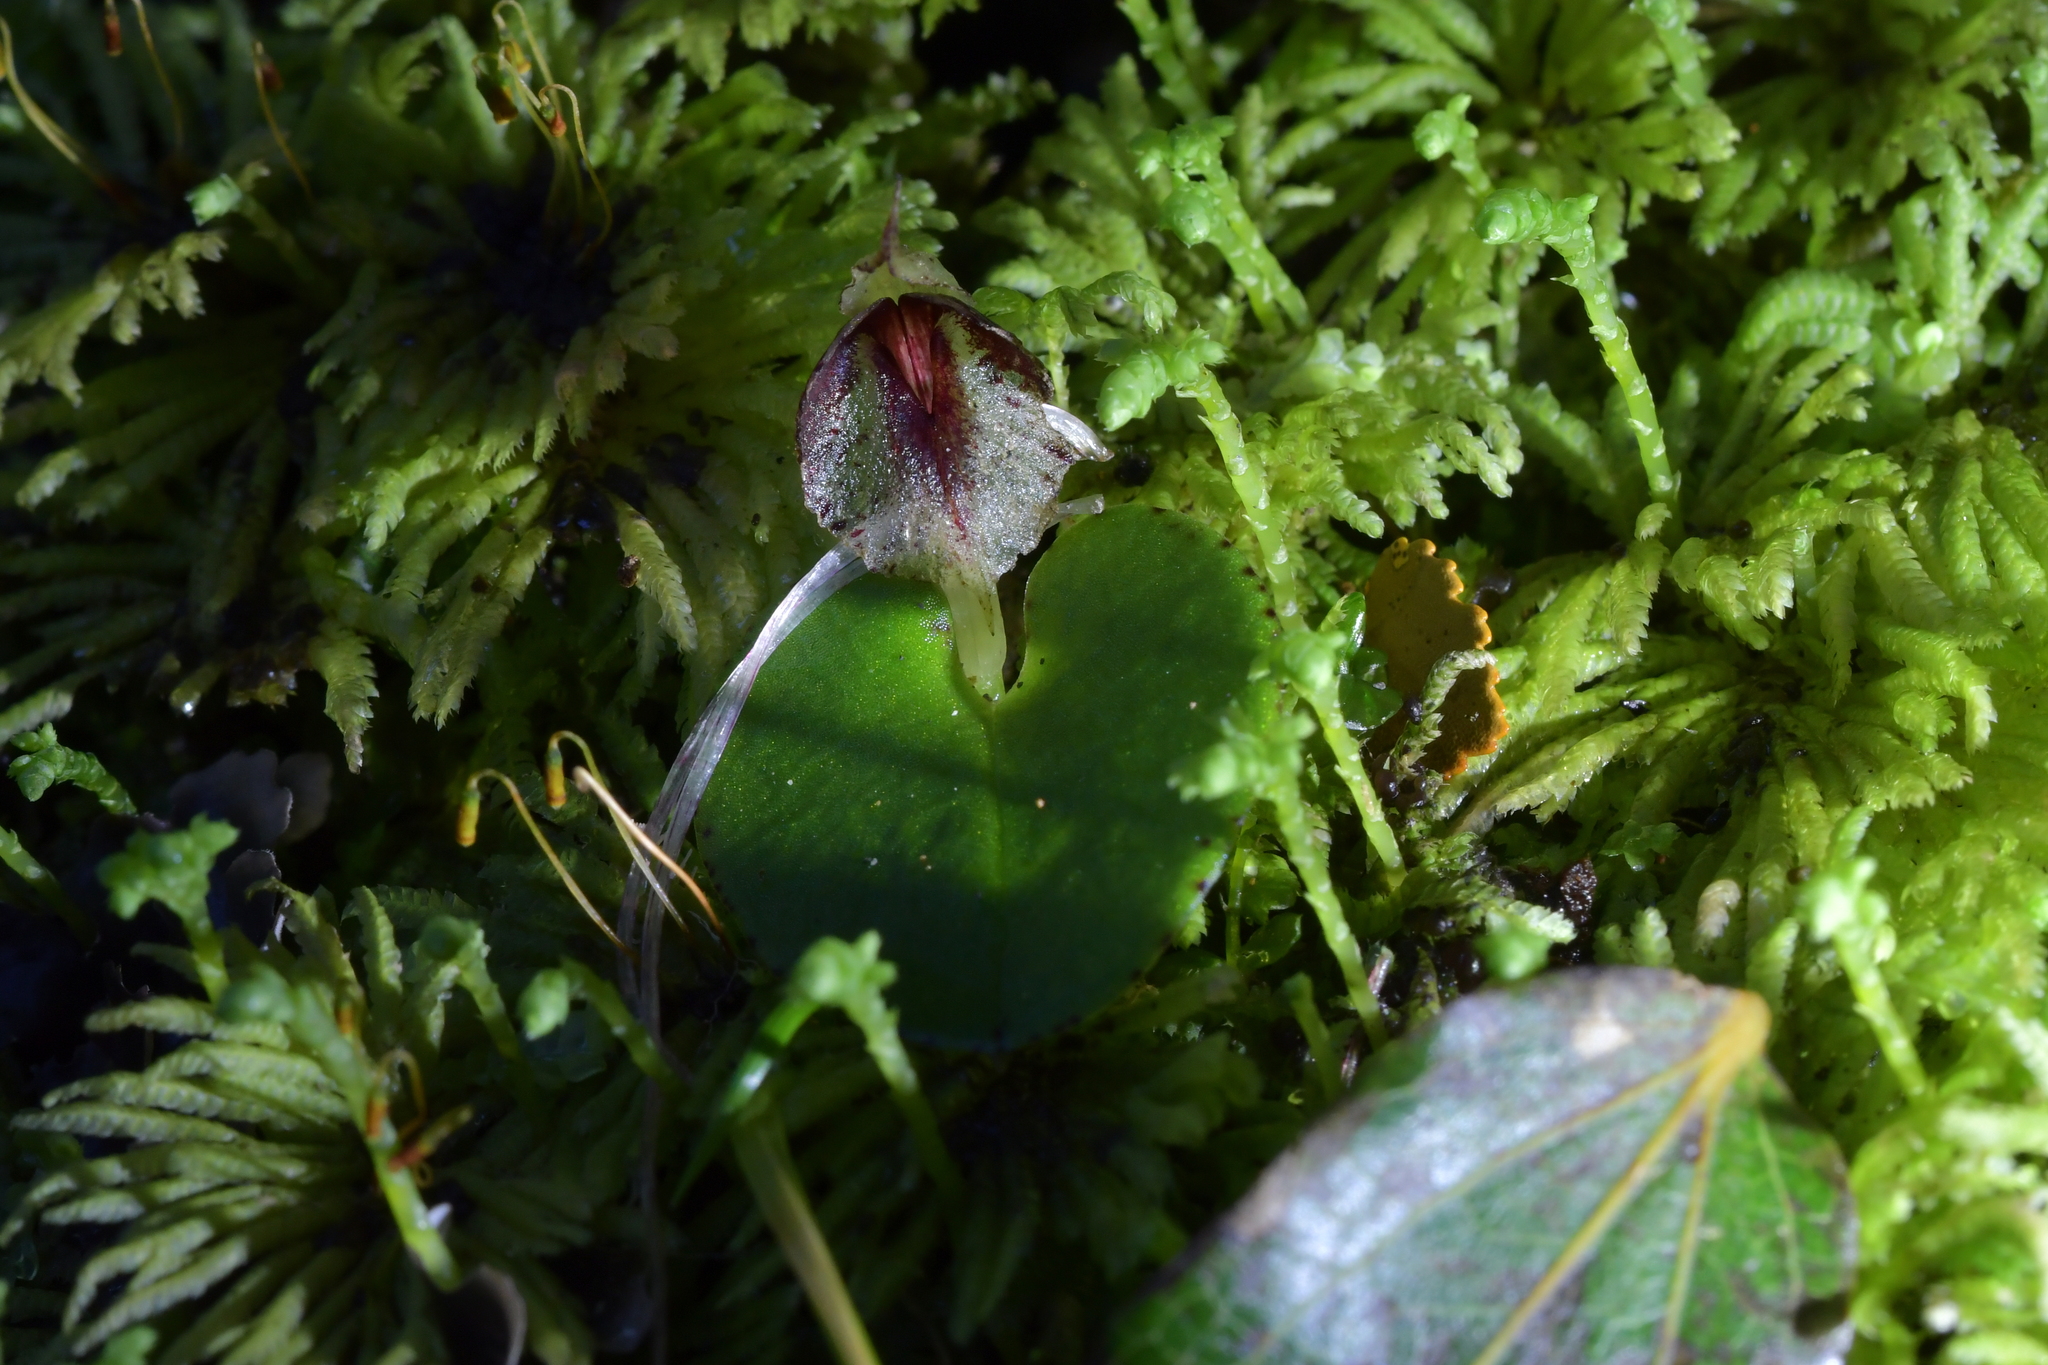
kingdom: Plantae
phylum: Tracheophyta
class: Liliopsida
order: Asparagales
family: Orchidaceae
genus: Corybas
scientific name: Corybas hatchii
